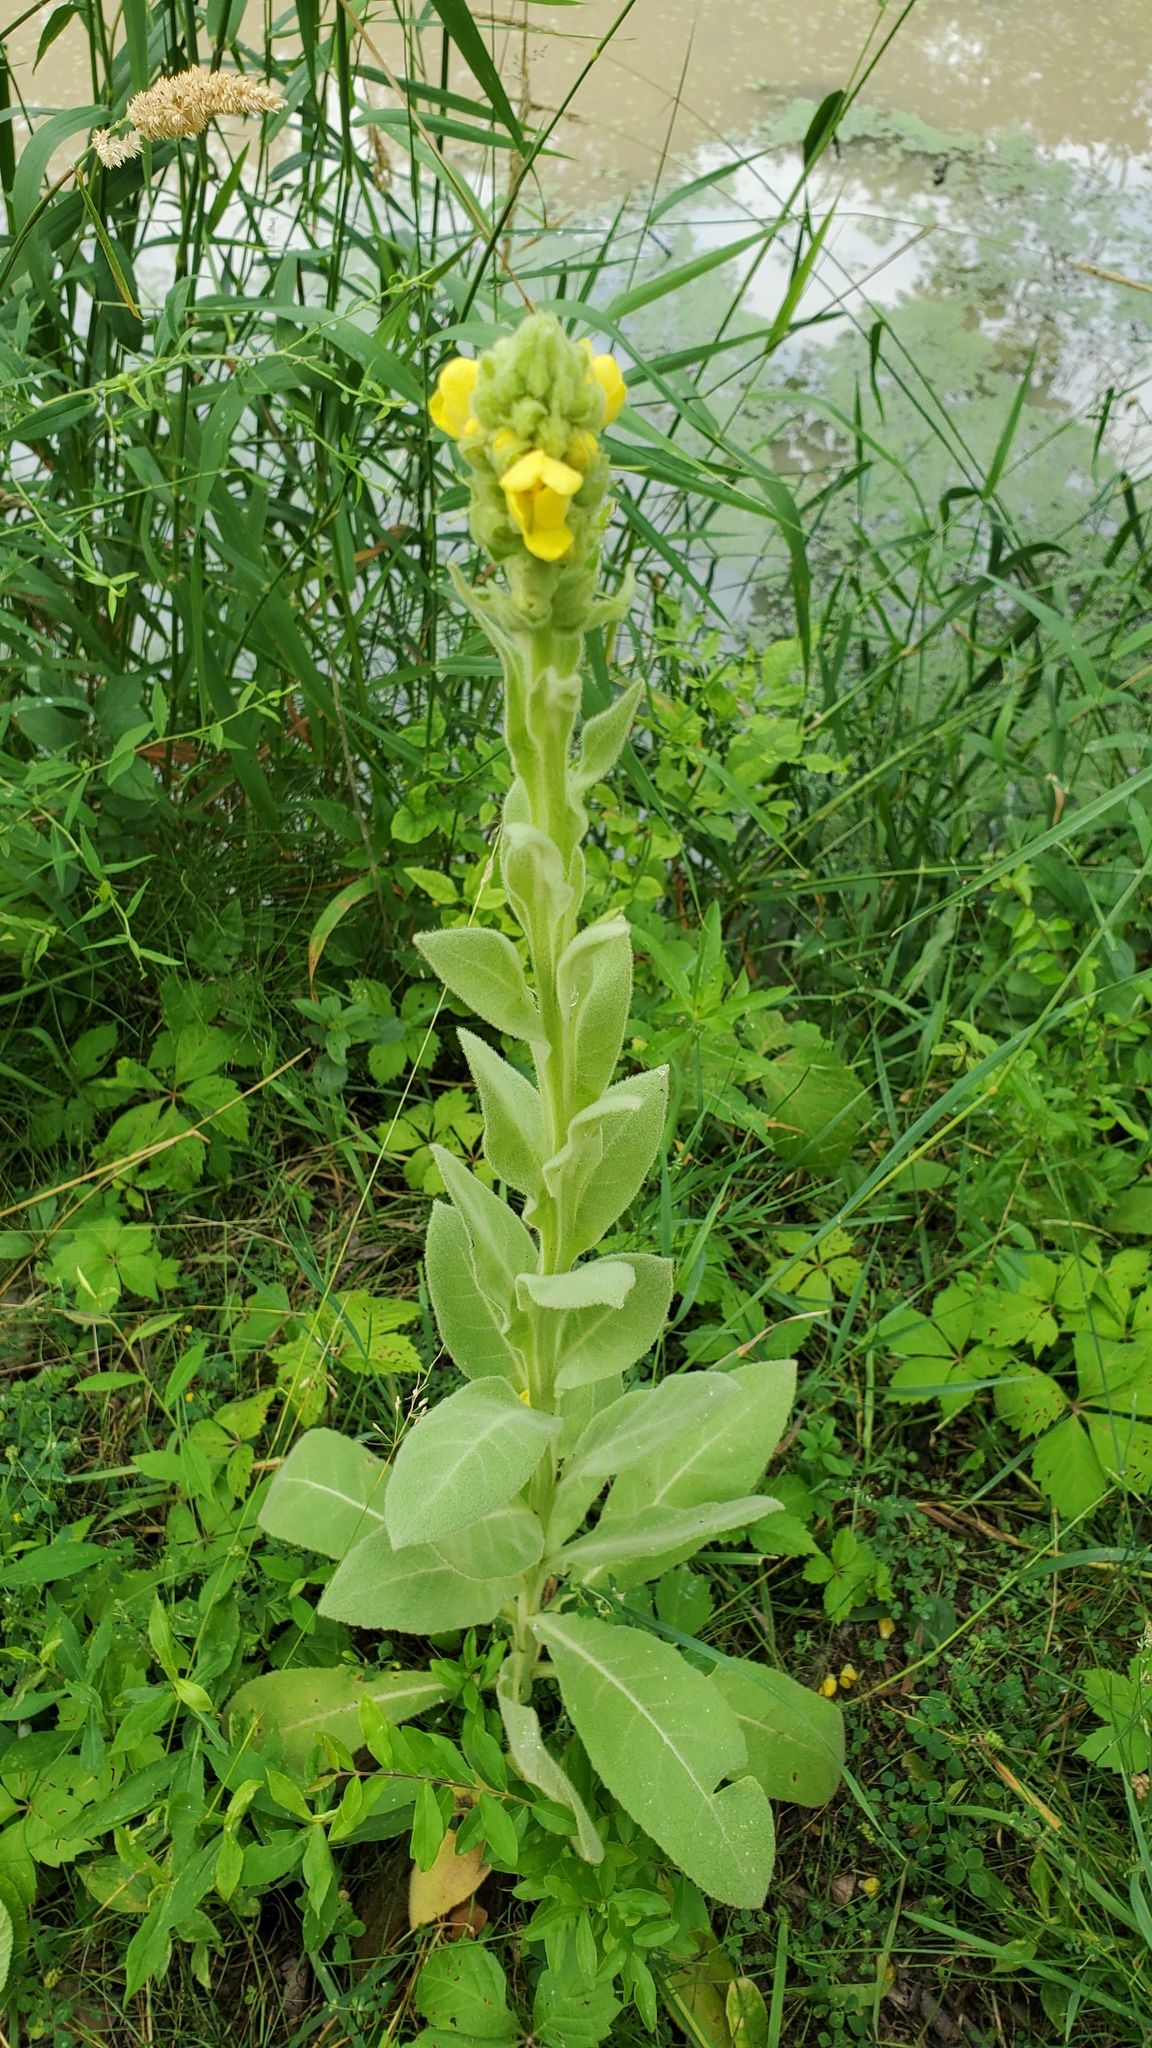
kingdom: Plantae
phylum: Tracheophyta
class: Magnoliopsida
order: Lamiales
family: Scrophulariaceae
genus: Verbascum
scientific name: Verbascum thapsus
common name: Common mullein
